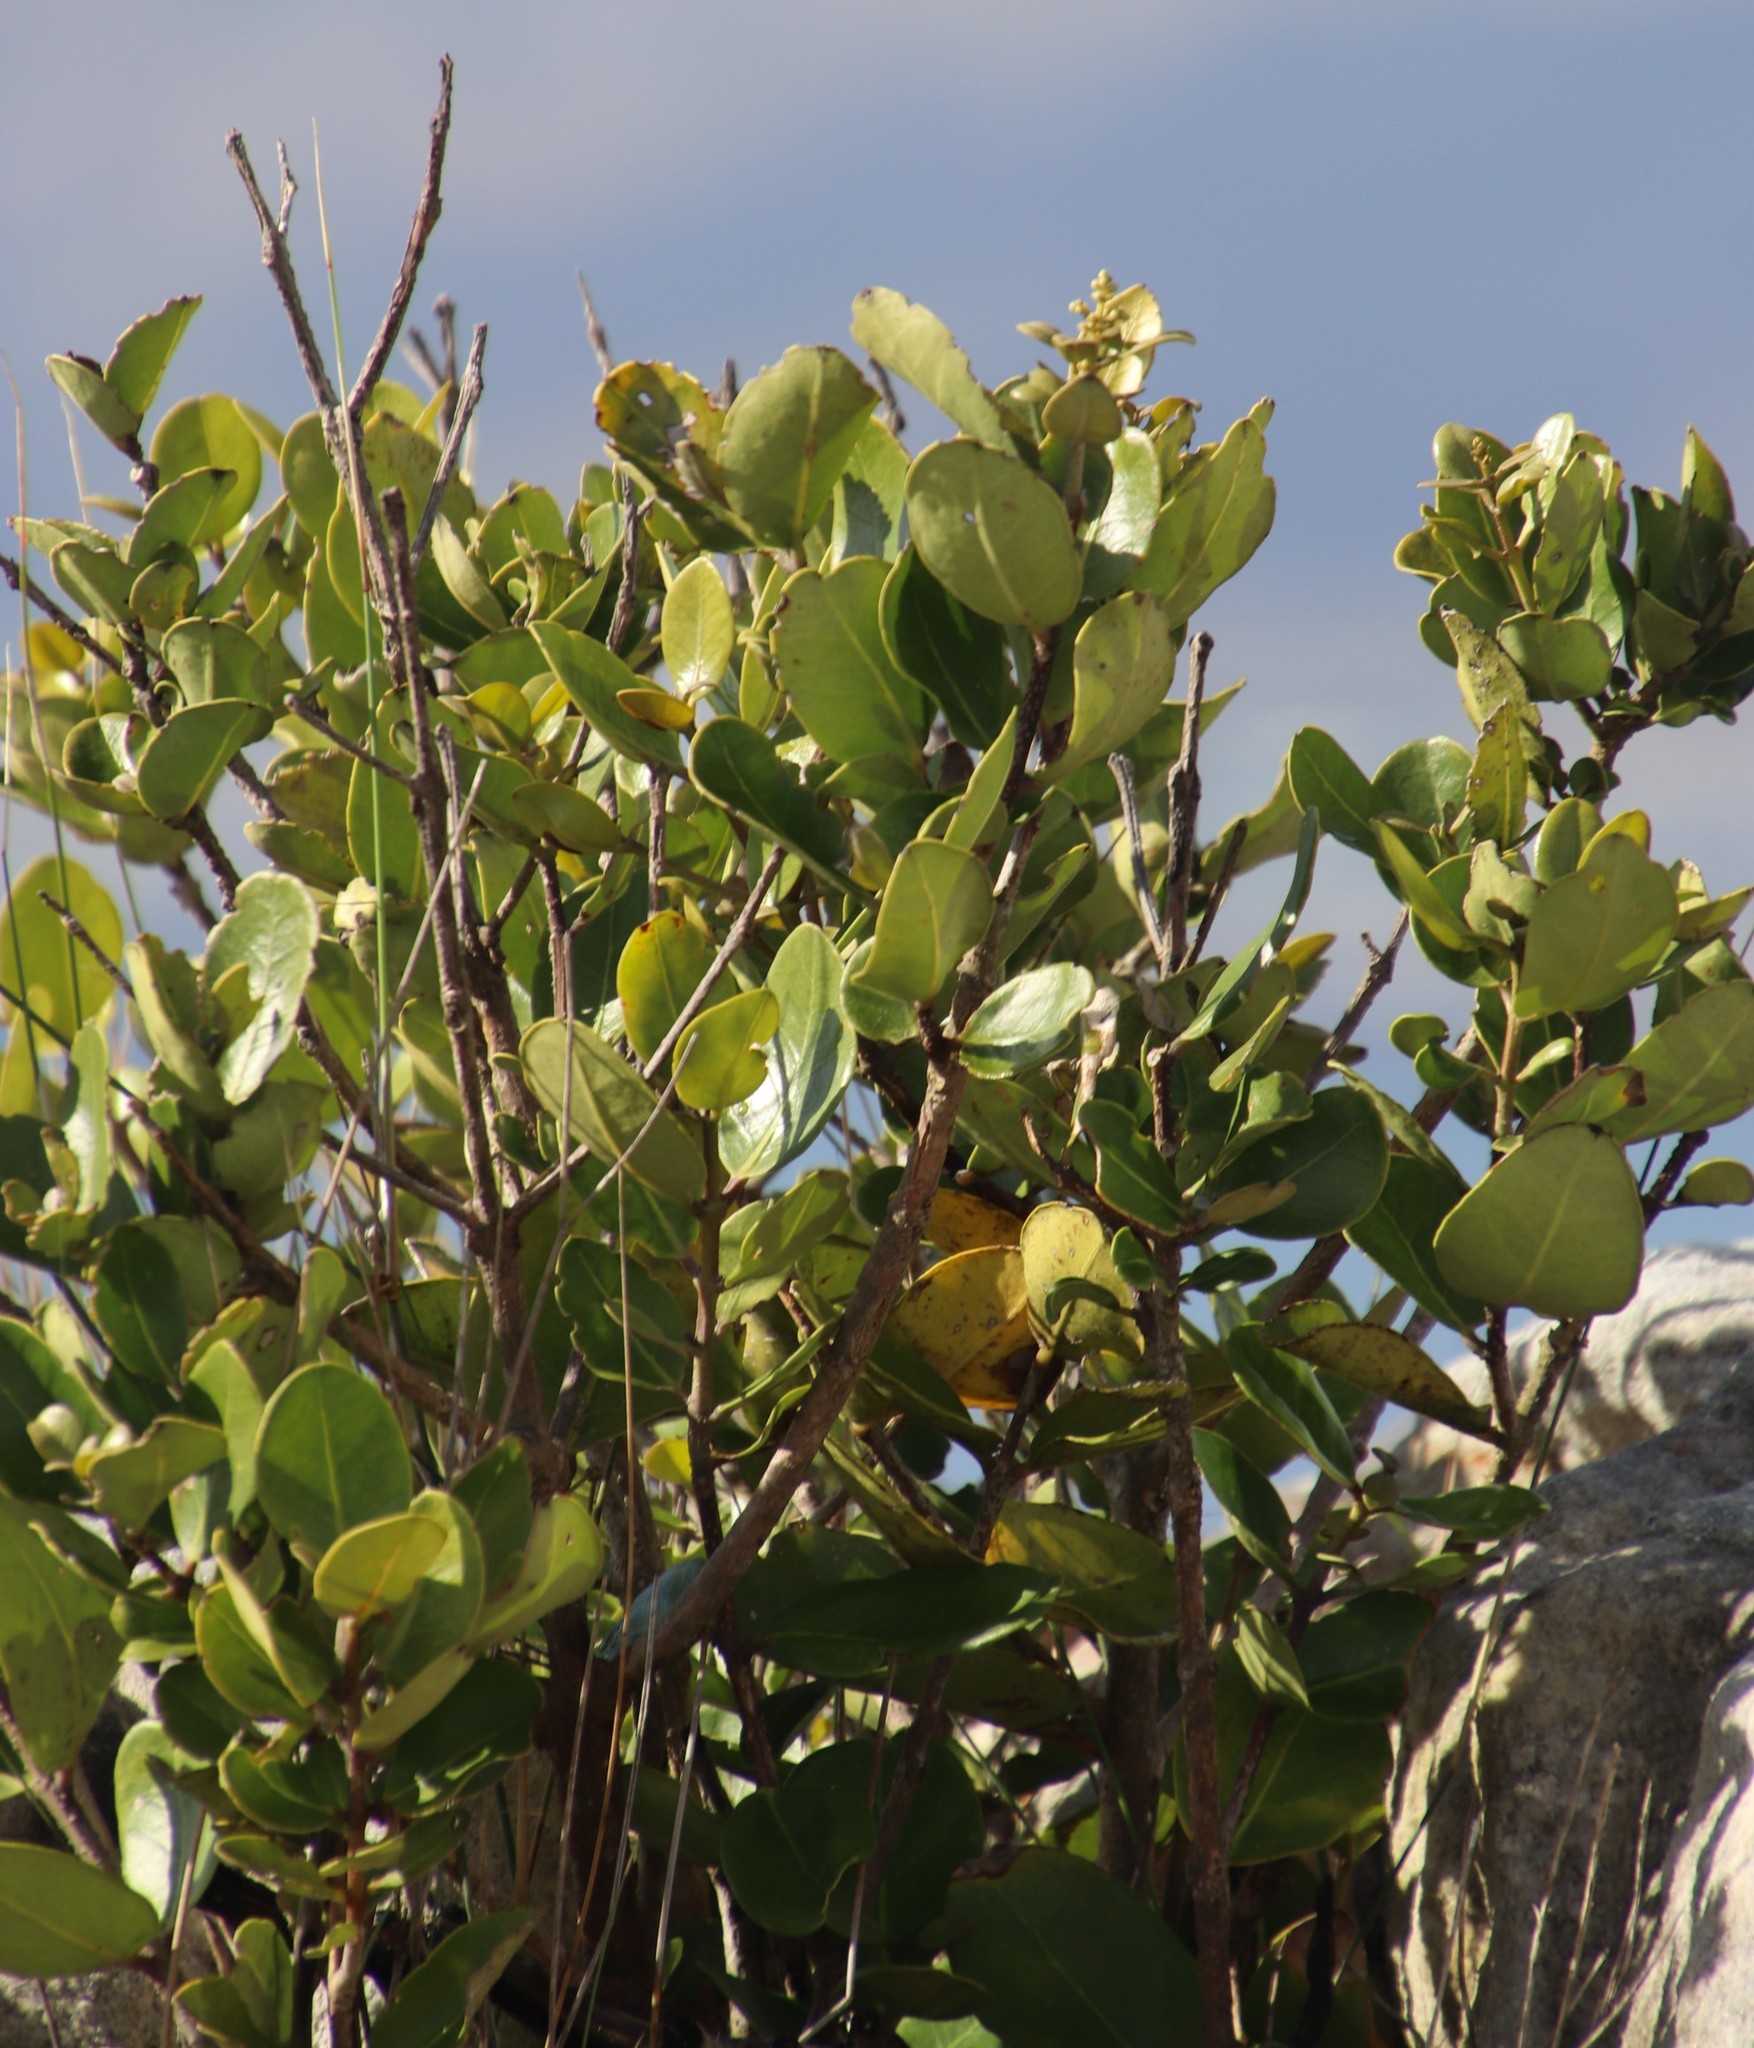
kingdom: Plantae
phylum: Tracheophyta
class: Magnoliopsida
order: Lamiales
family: Oleaceae
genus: Olea
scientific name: Olea capensis
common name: Black ironwood
